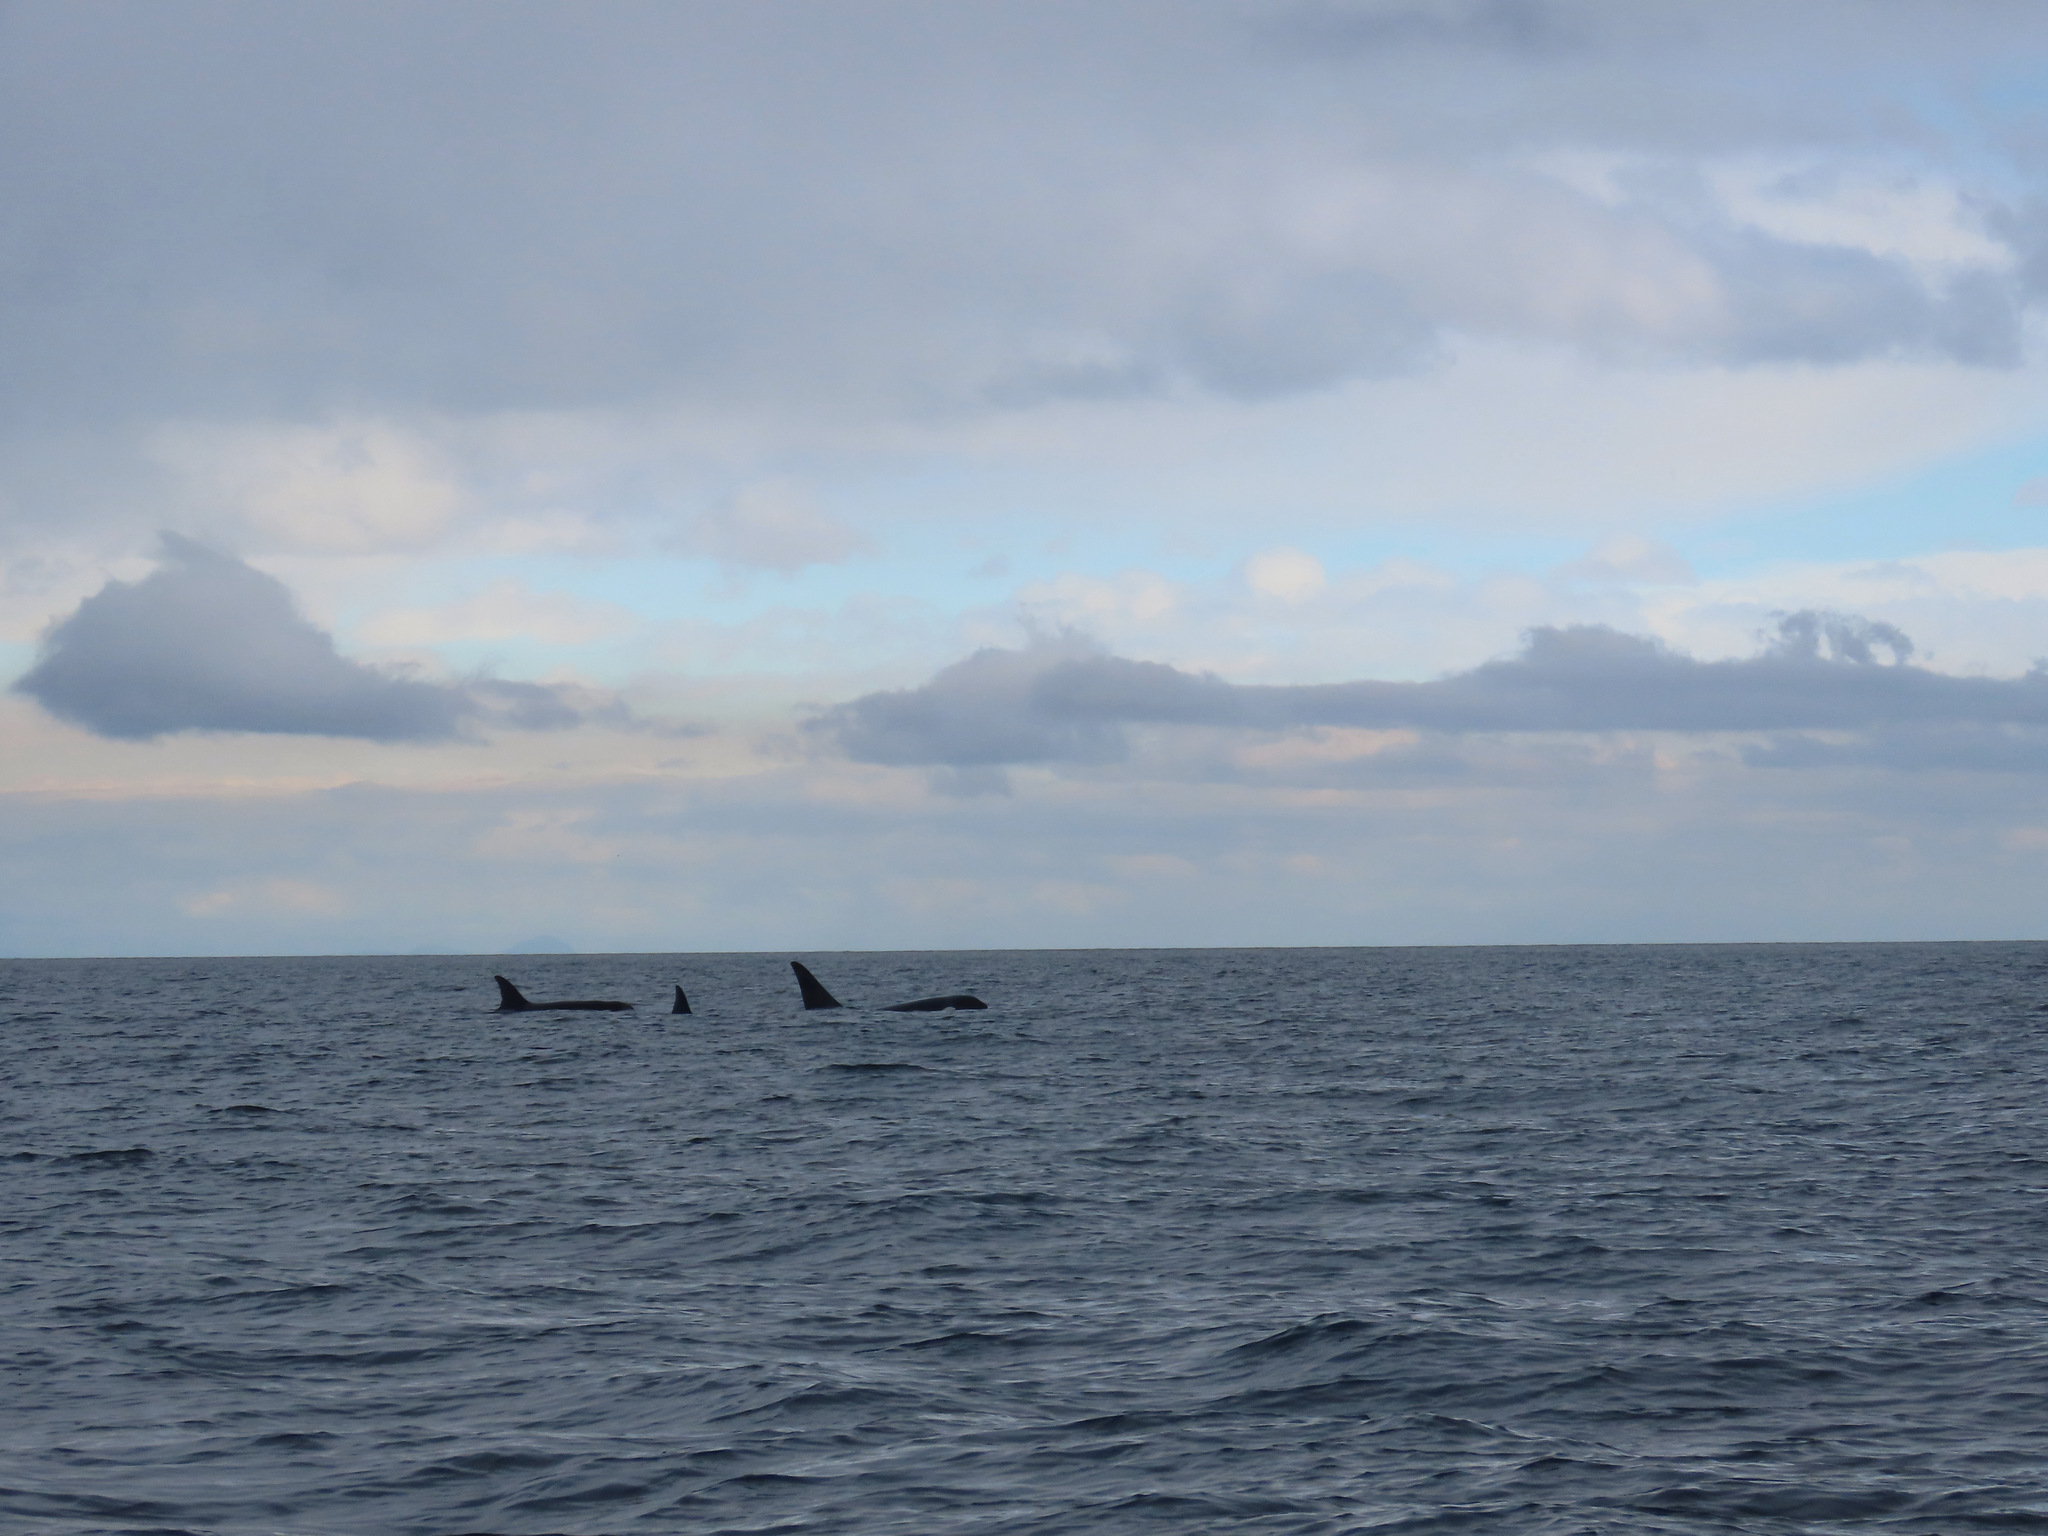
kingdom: Animalia
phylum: Chordata
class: Mammalia
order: Cetacea
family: Delphinidae
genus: Orcinus
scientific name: Orcinus orca
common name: Killer whale
